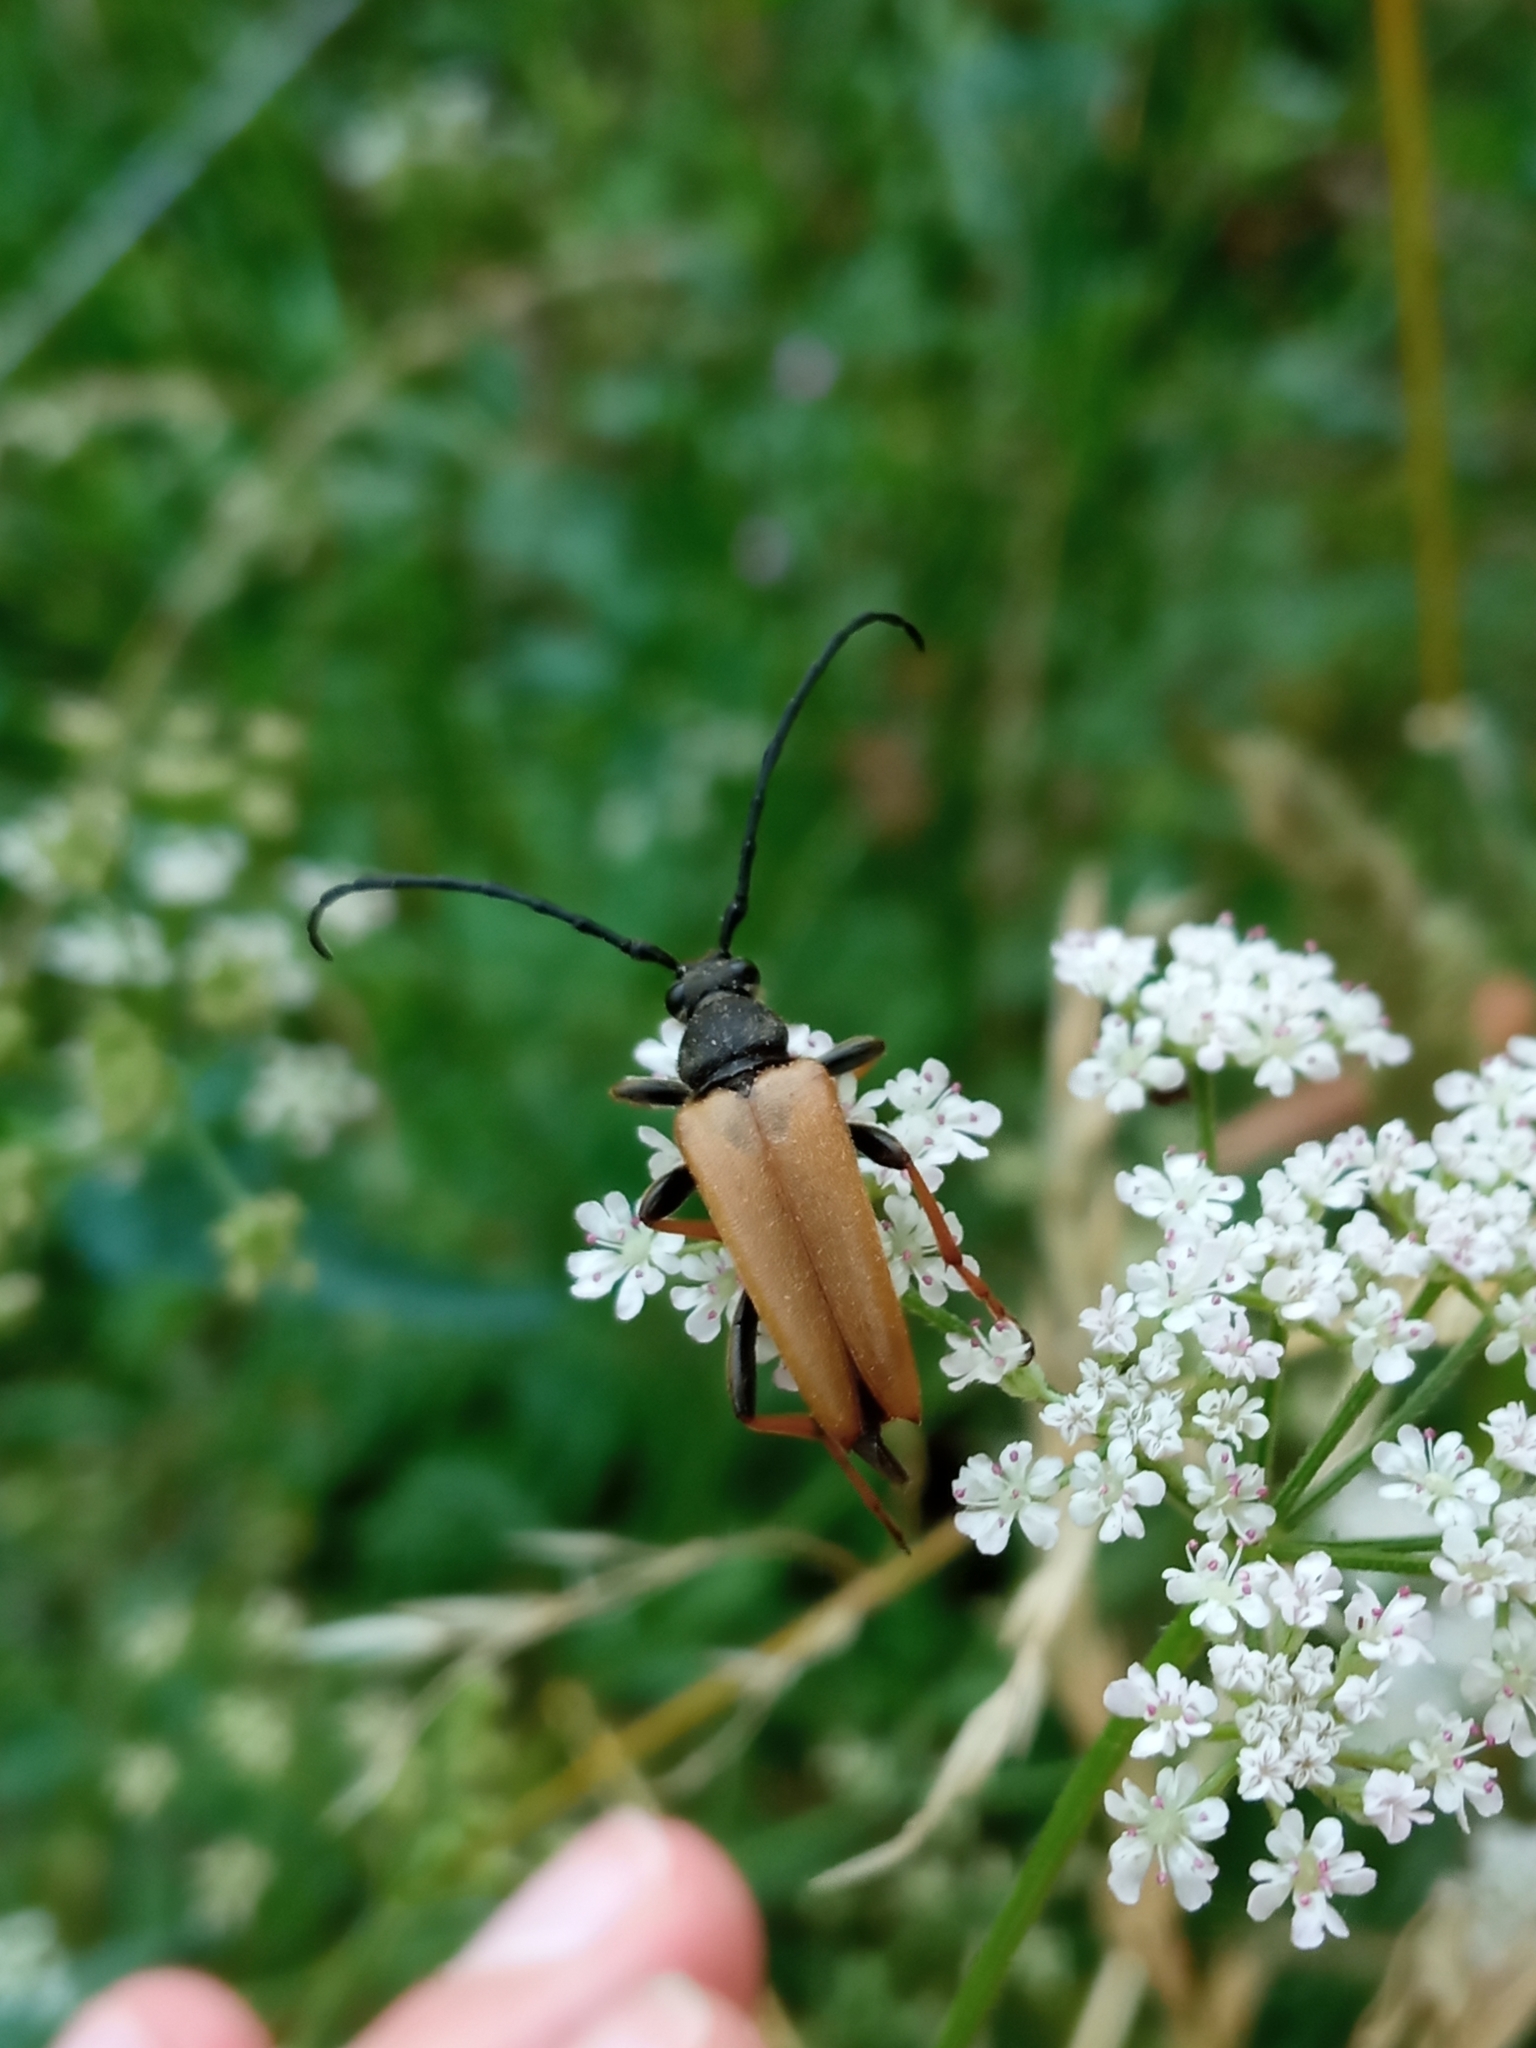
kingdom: Animalia
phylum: Arthropoda
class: Insecta
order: Coleoptera
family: Cerambycidae
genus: Stictoleptura
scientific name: Stictoleptura rubra
